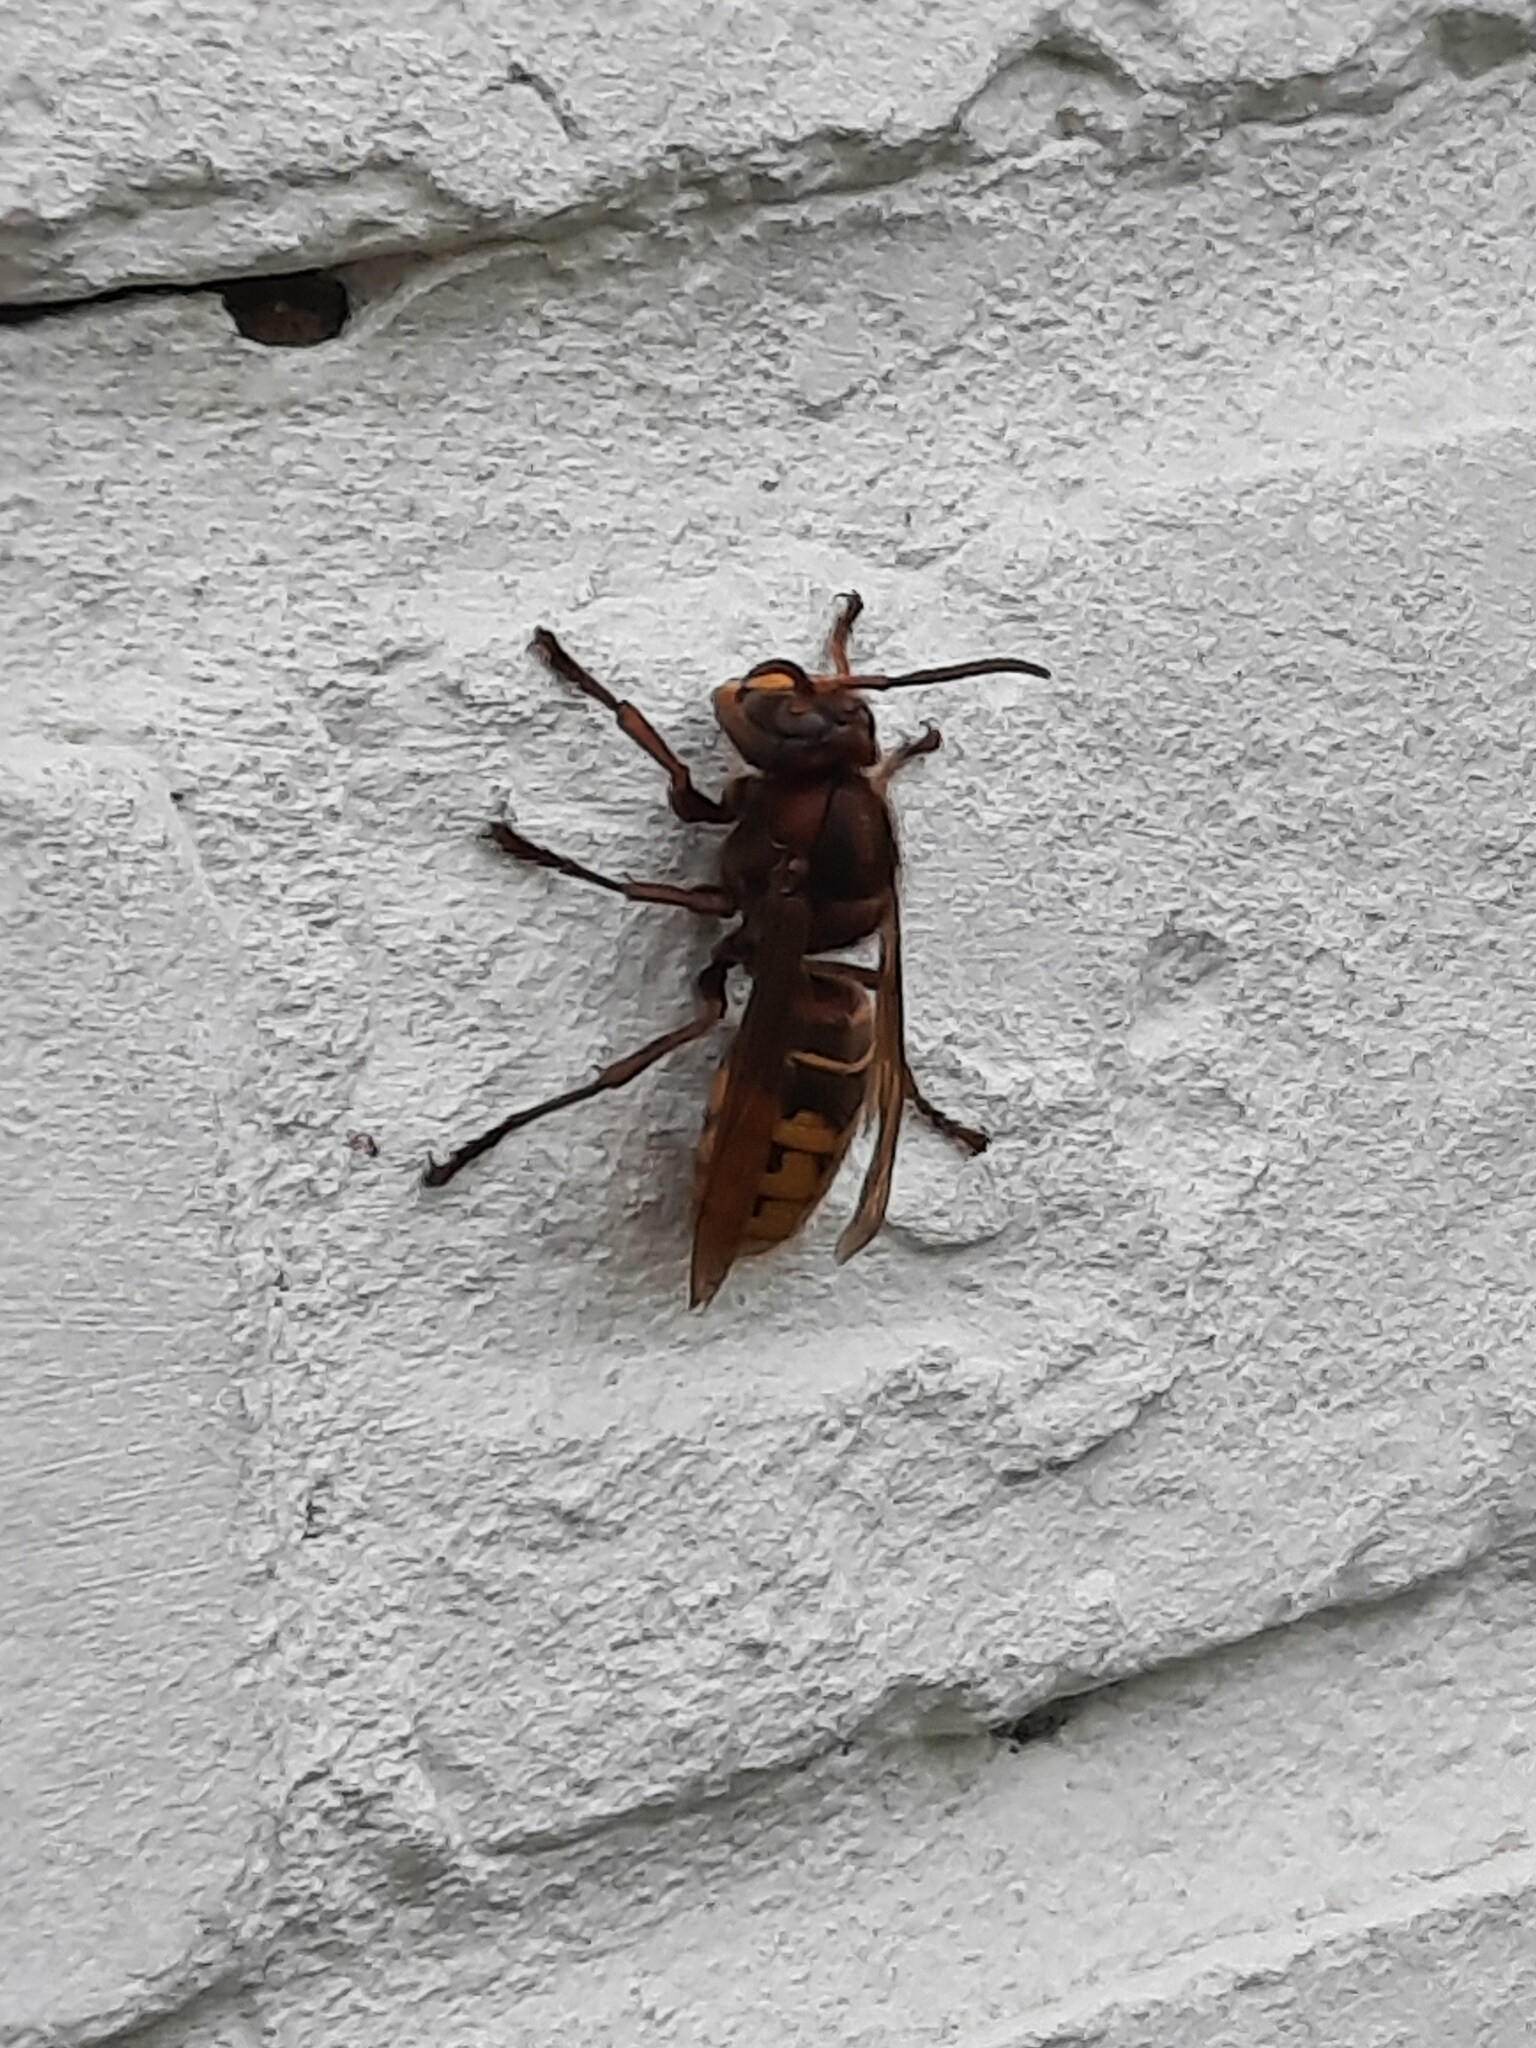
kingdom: Animalia
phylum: Arthropoda
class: Insecta
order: Hymenoptera
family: Vespidae
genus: Vespa
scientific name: Vespa crabro
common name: Hornet
